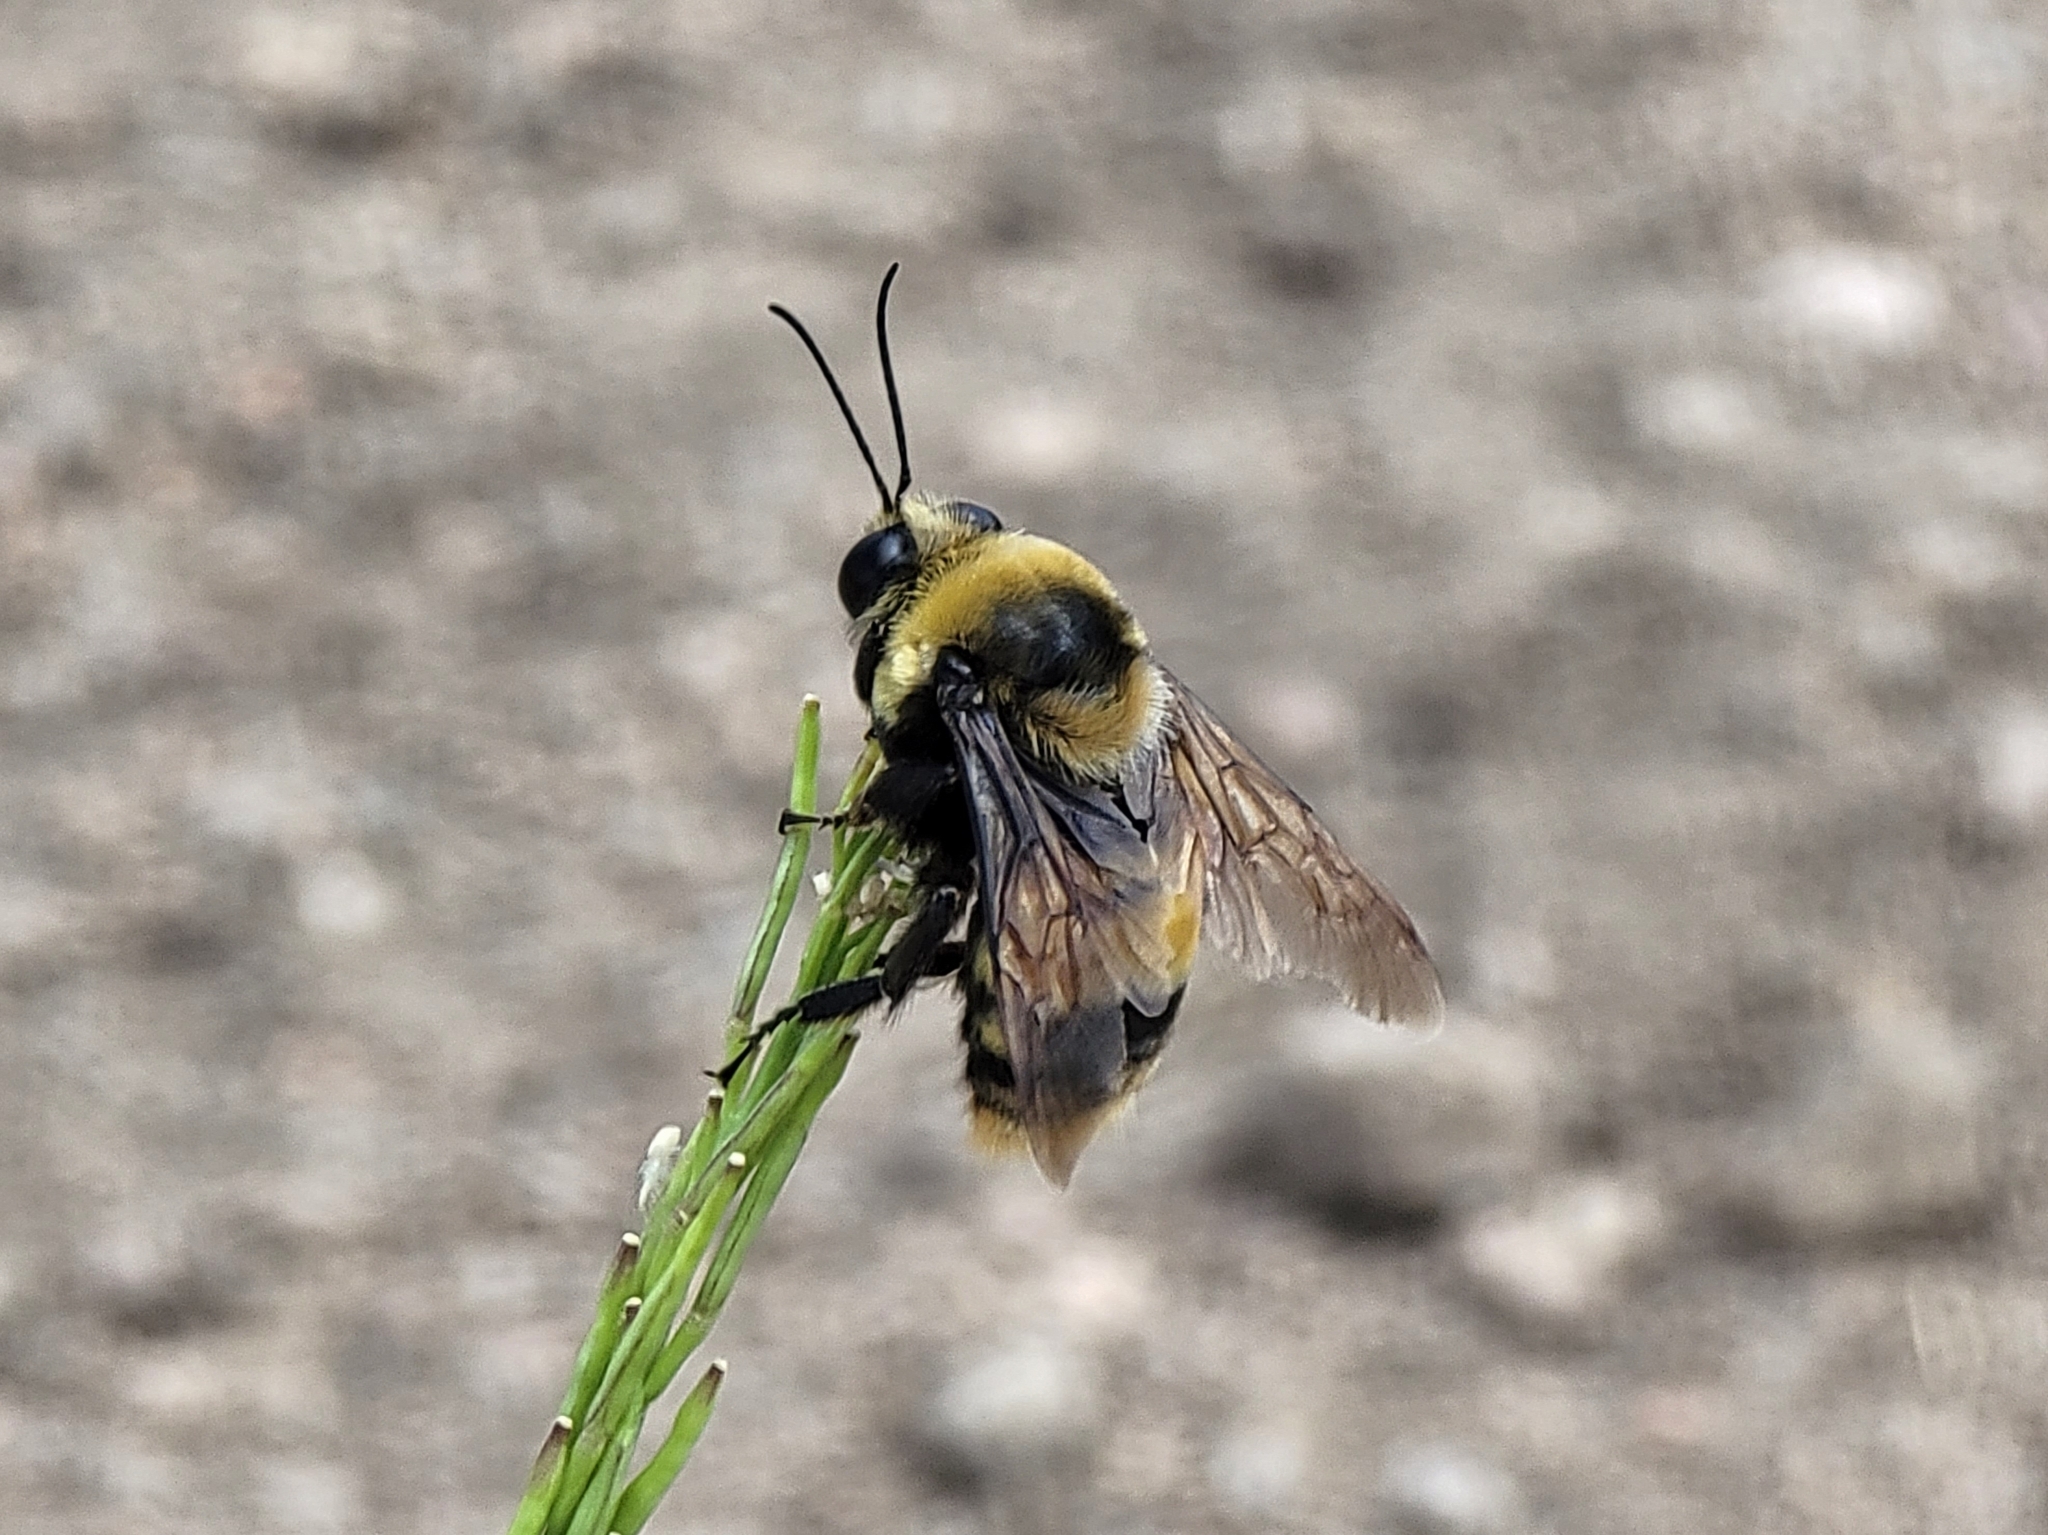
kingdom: Animalia
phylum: Arthropoda
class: Insecta
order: Hymenoptera
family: Apidae
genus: Bombus
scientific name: Bombus crotchii
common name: Crotch bumble bee
